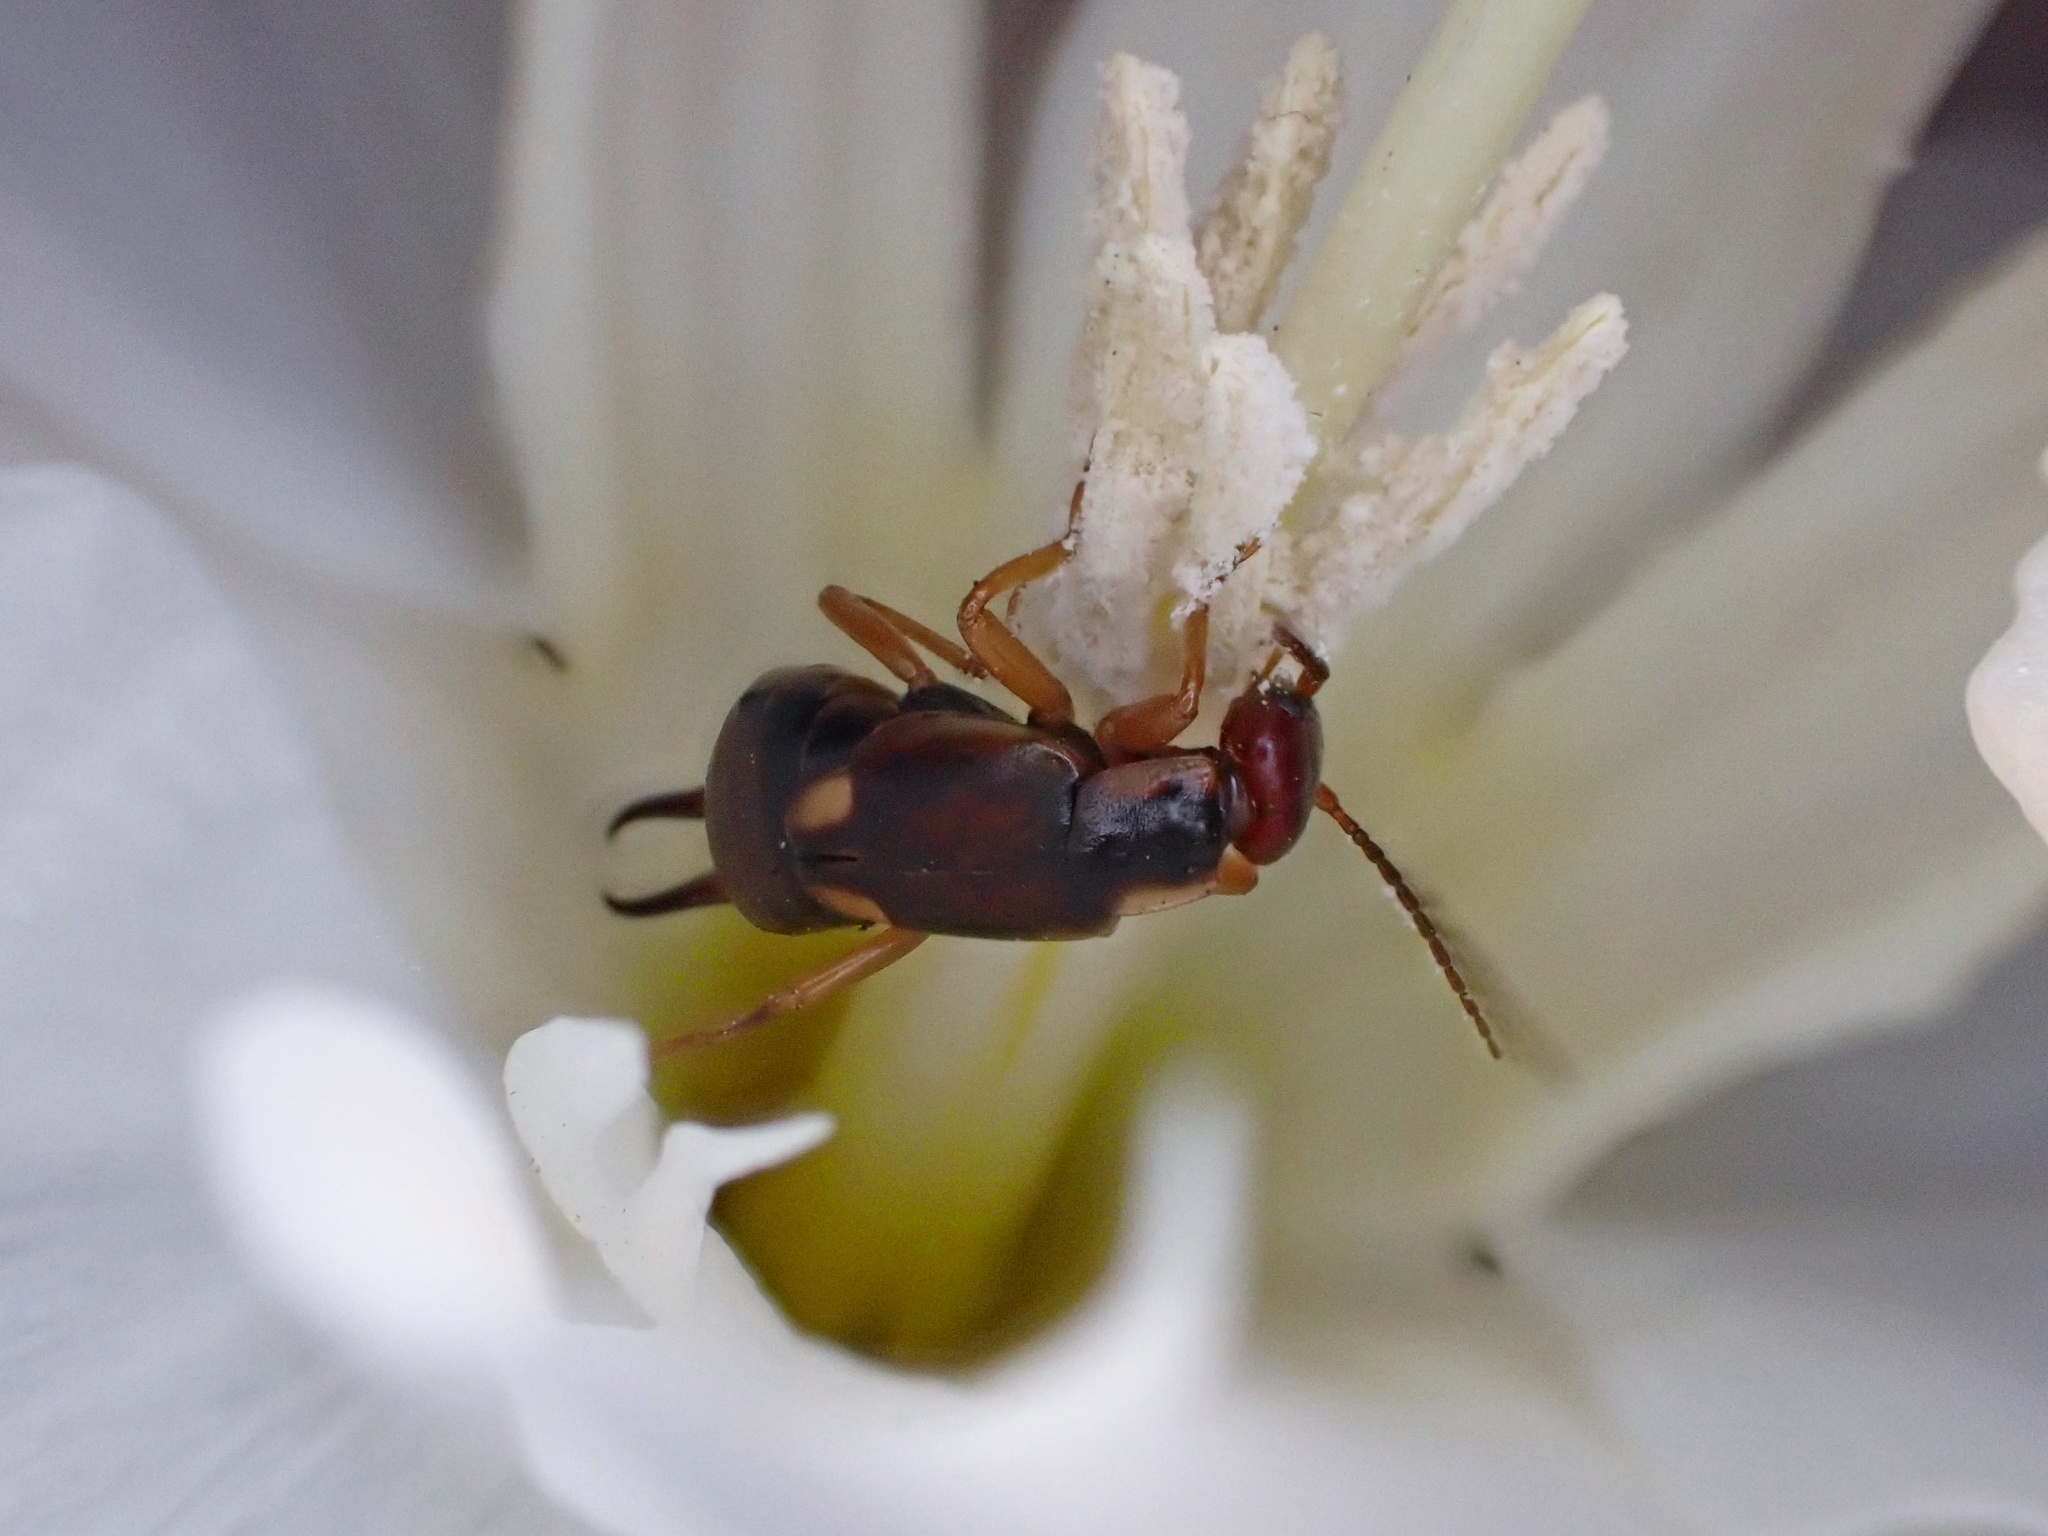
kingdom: Animalia
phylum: Arthropoda
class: Insecta
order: Dermaptera
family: Forficulidae
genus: Forficula
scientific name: Forficula
